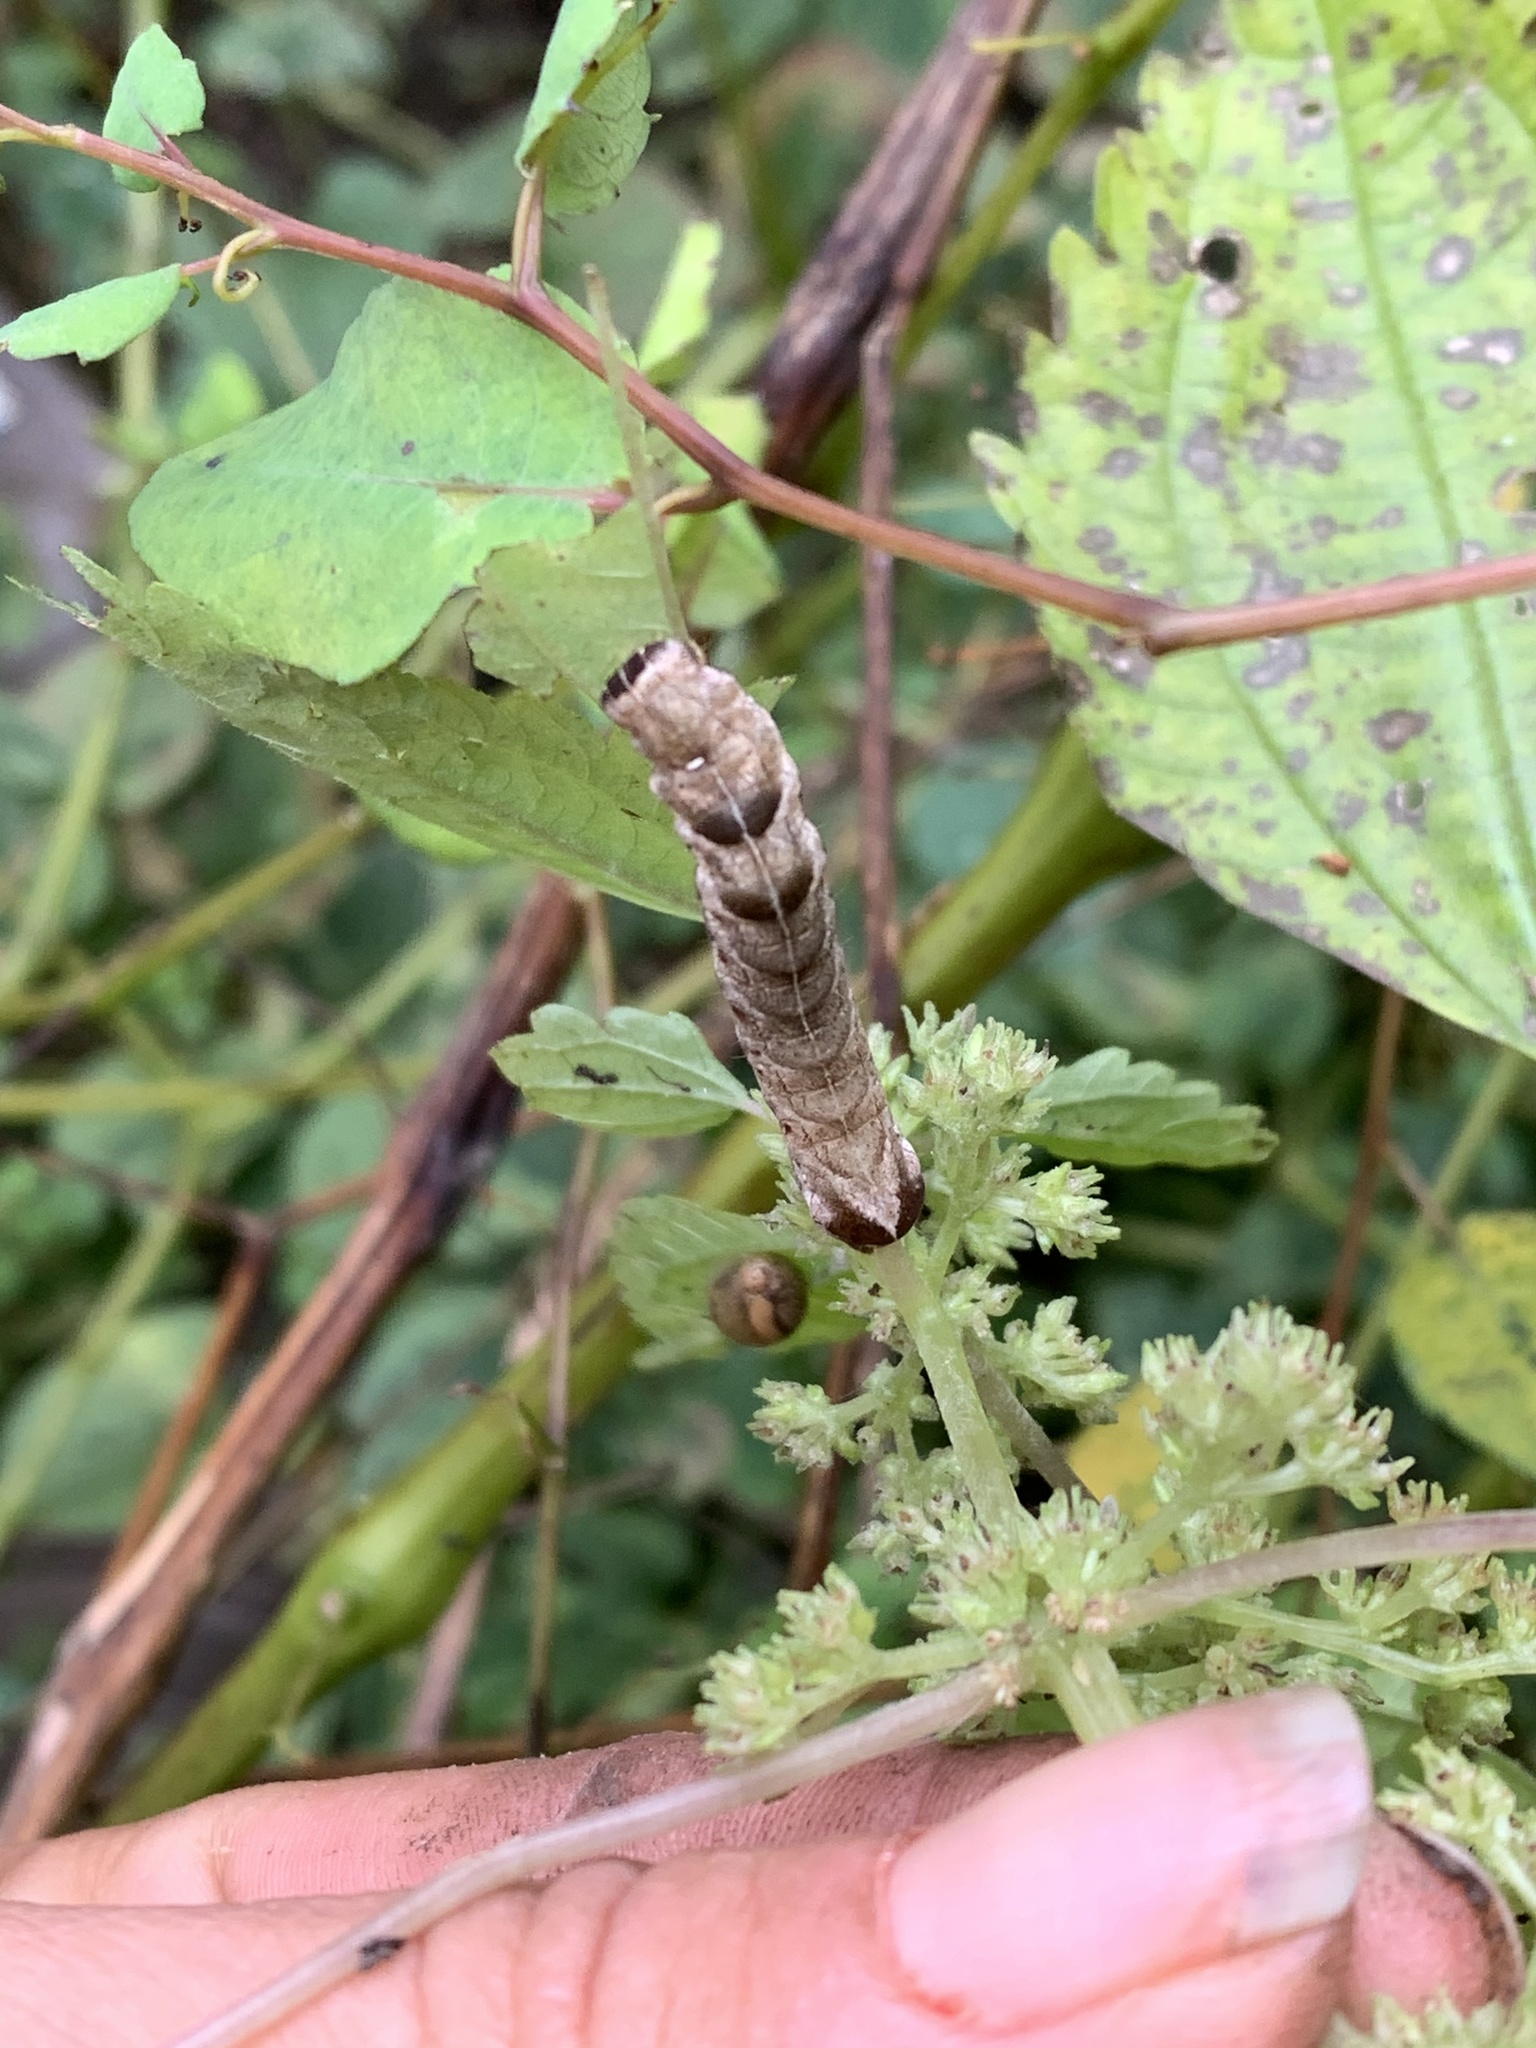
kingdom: Animalia
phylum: Arthropoda
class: Insecta
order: Lepidoptera
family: Noctuidae
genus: Melanchra
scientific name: Melanchra adjuncta
